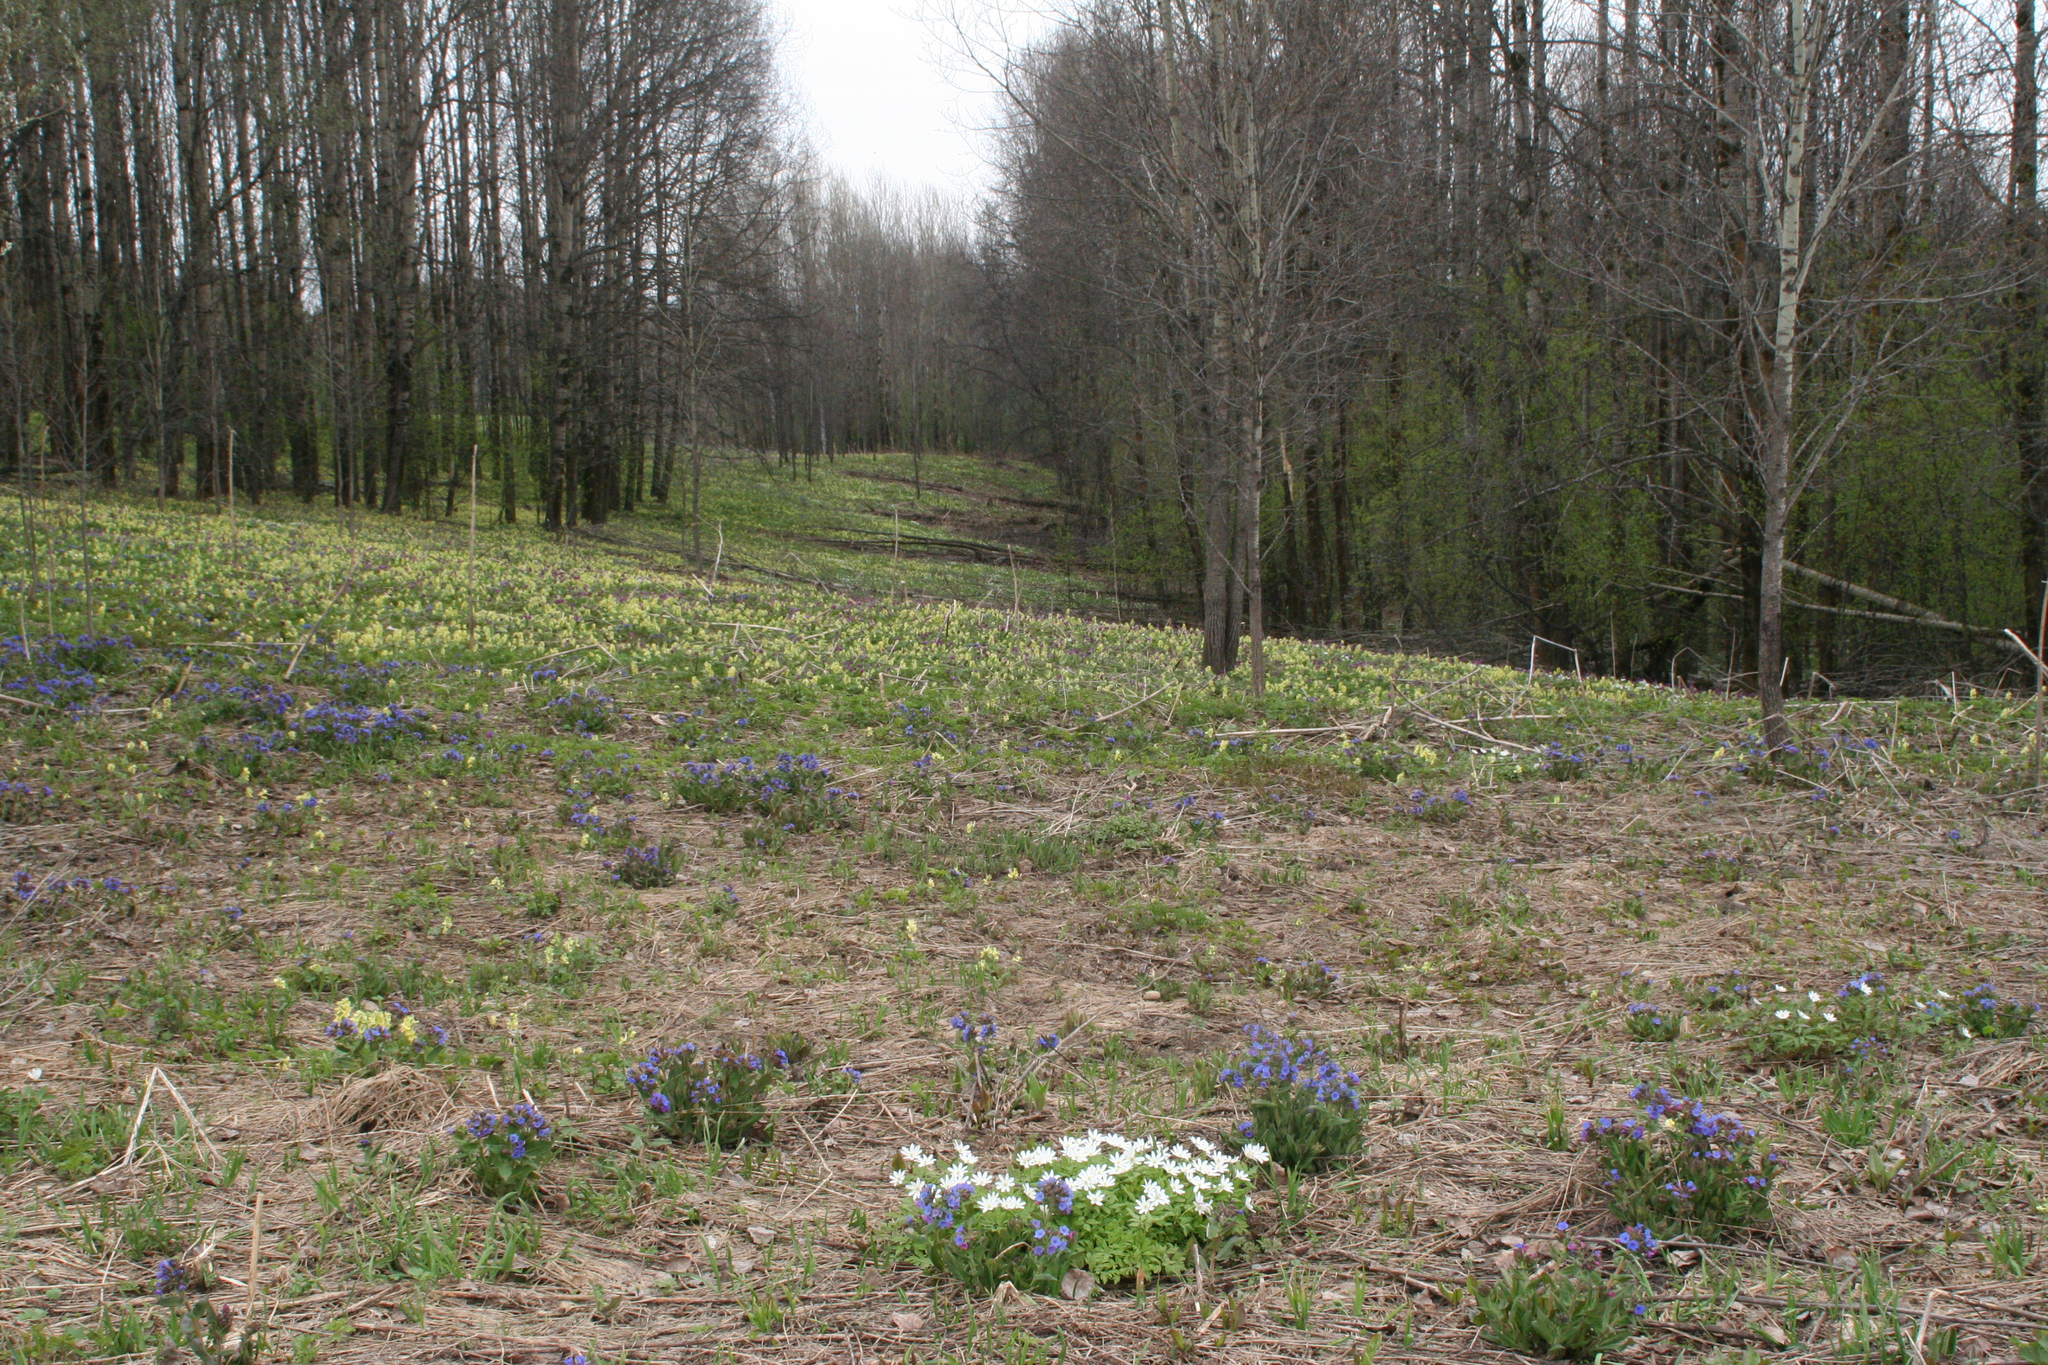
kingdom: Plantae
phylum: Tracheophyta
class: Magnoliopsida
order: Boraginales
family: Boraginaceae
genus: Pulmonaria
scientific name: Pulmonaria mollis
